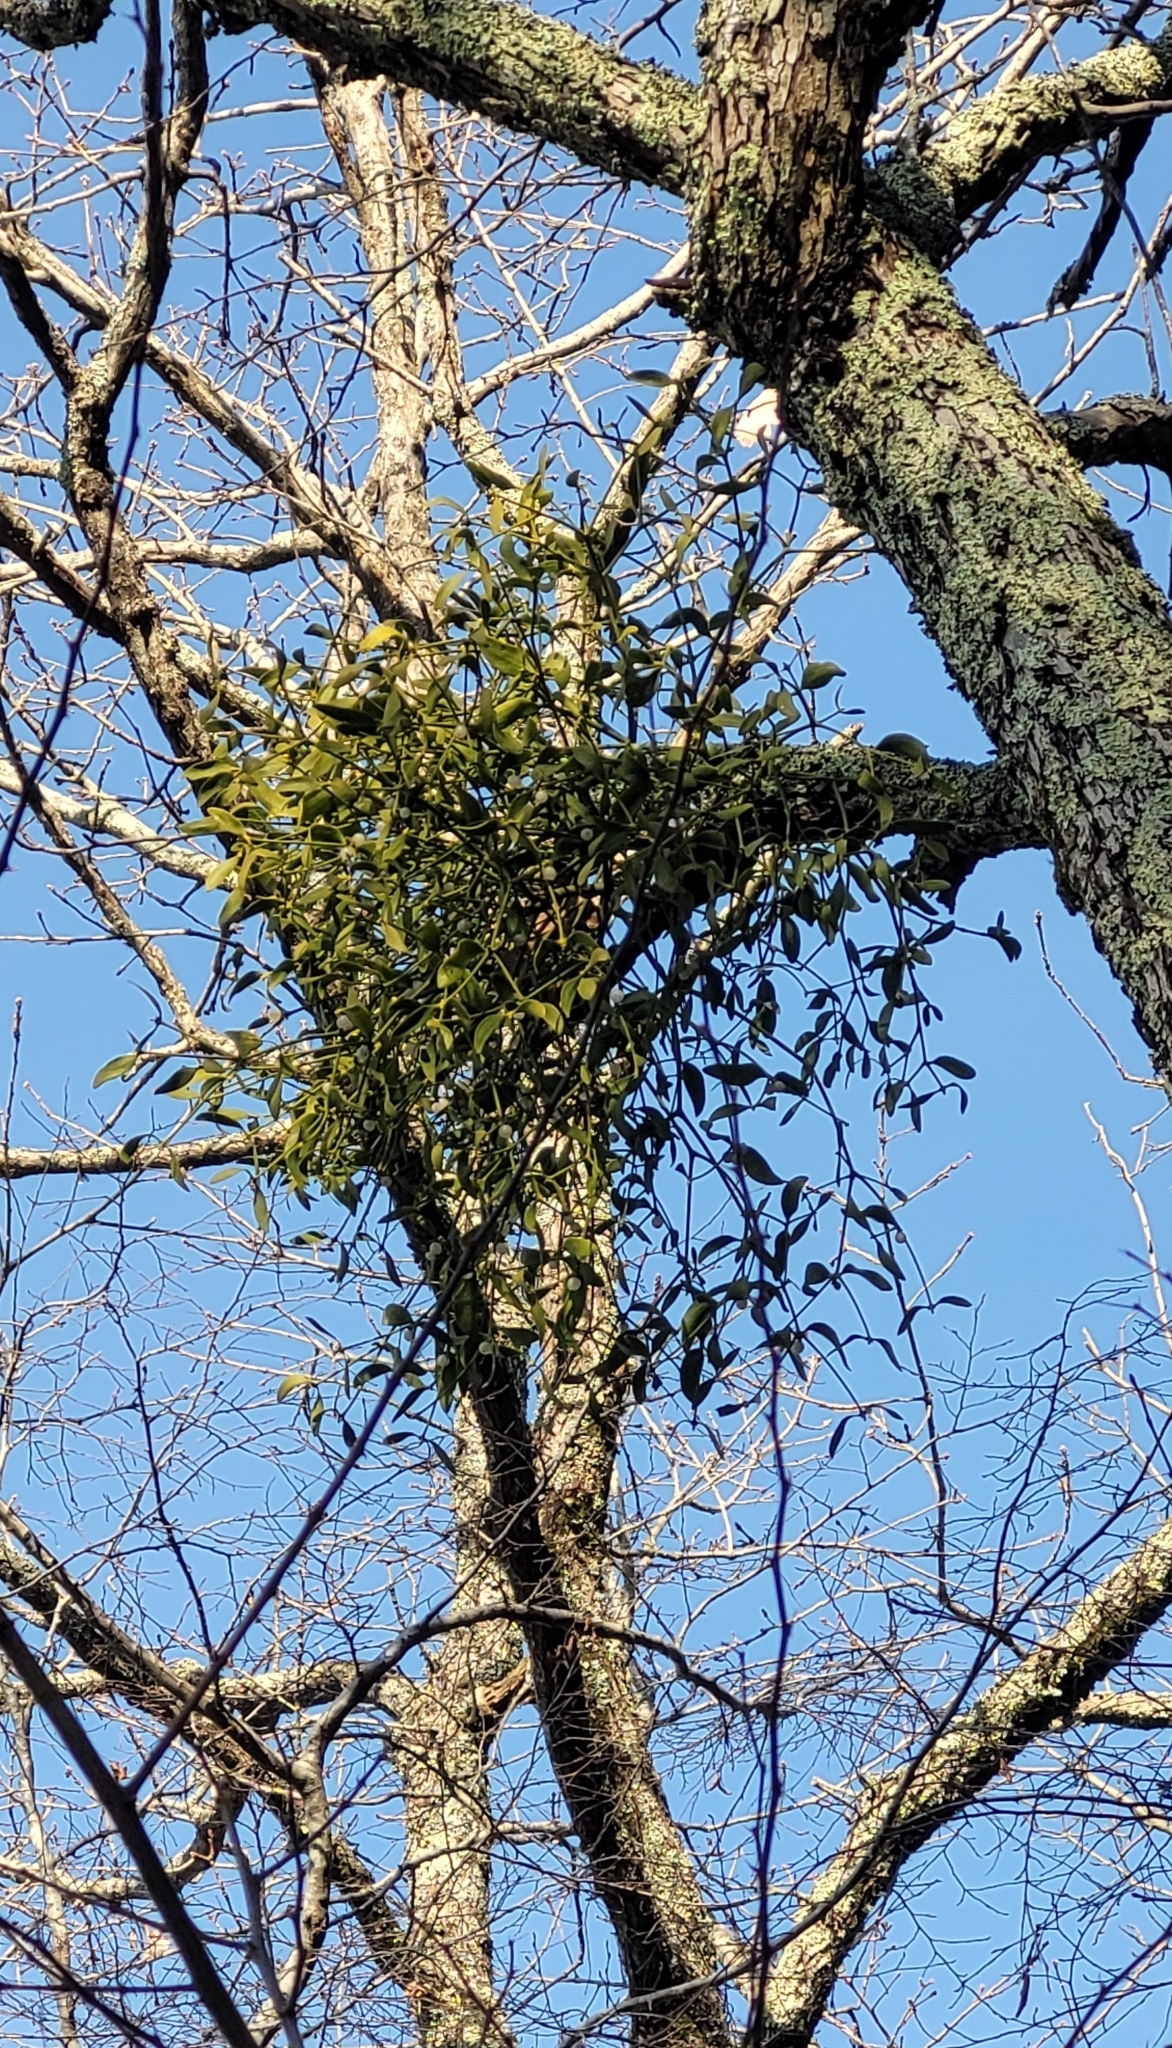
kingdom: Plantae
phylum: Tracheophyta
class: Magnoliopsida
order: Santalales
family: Viscaceae
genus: Viscum
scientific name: Viscum album
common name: Mistletoe
